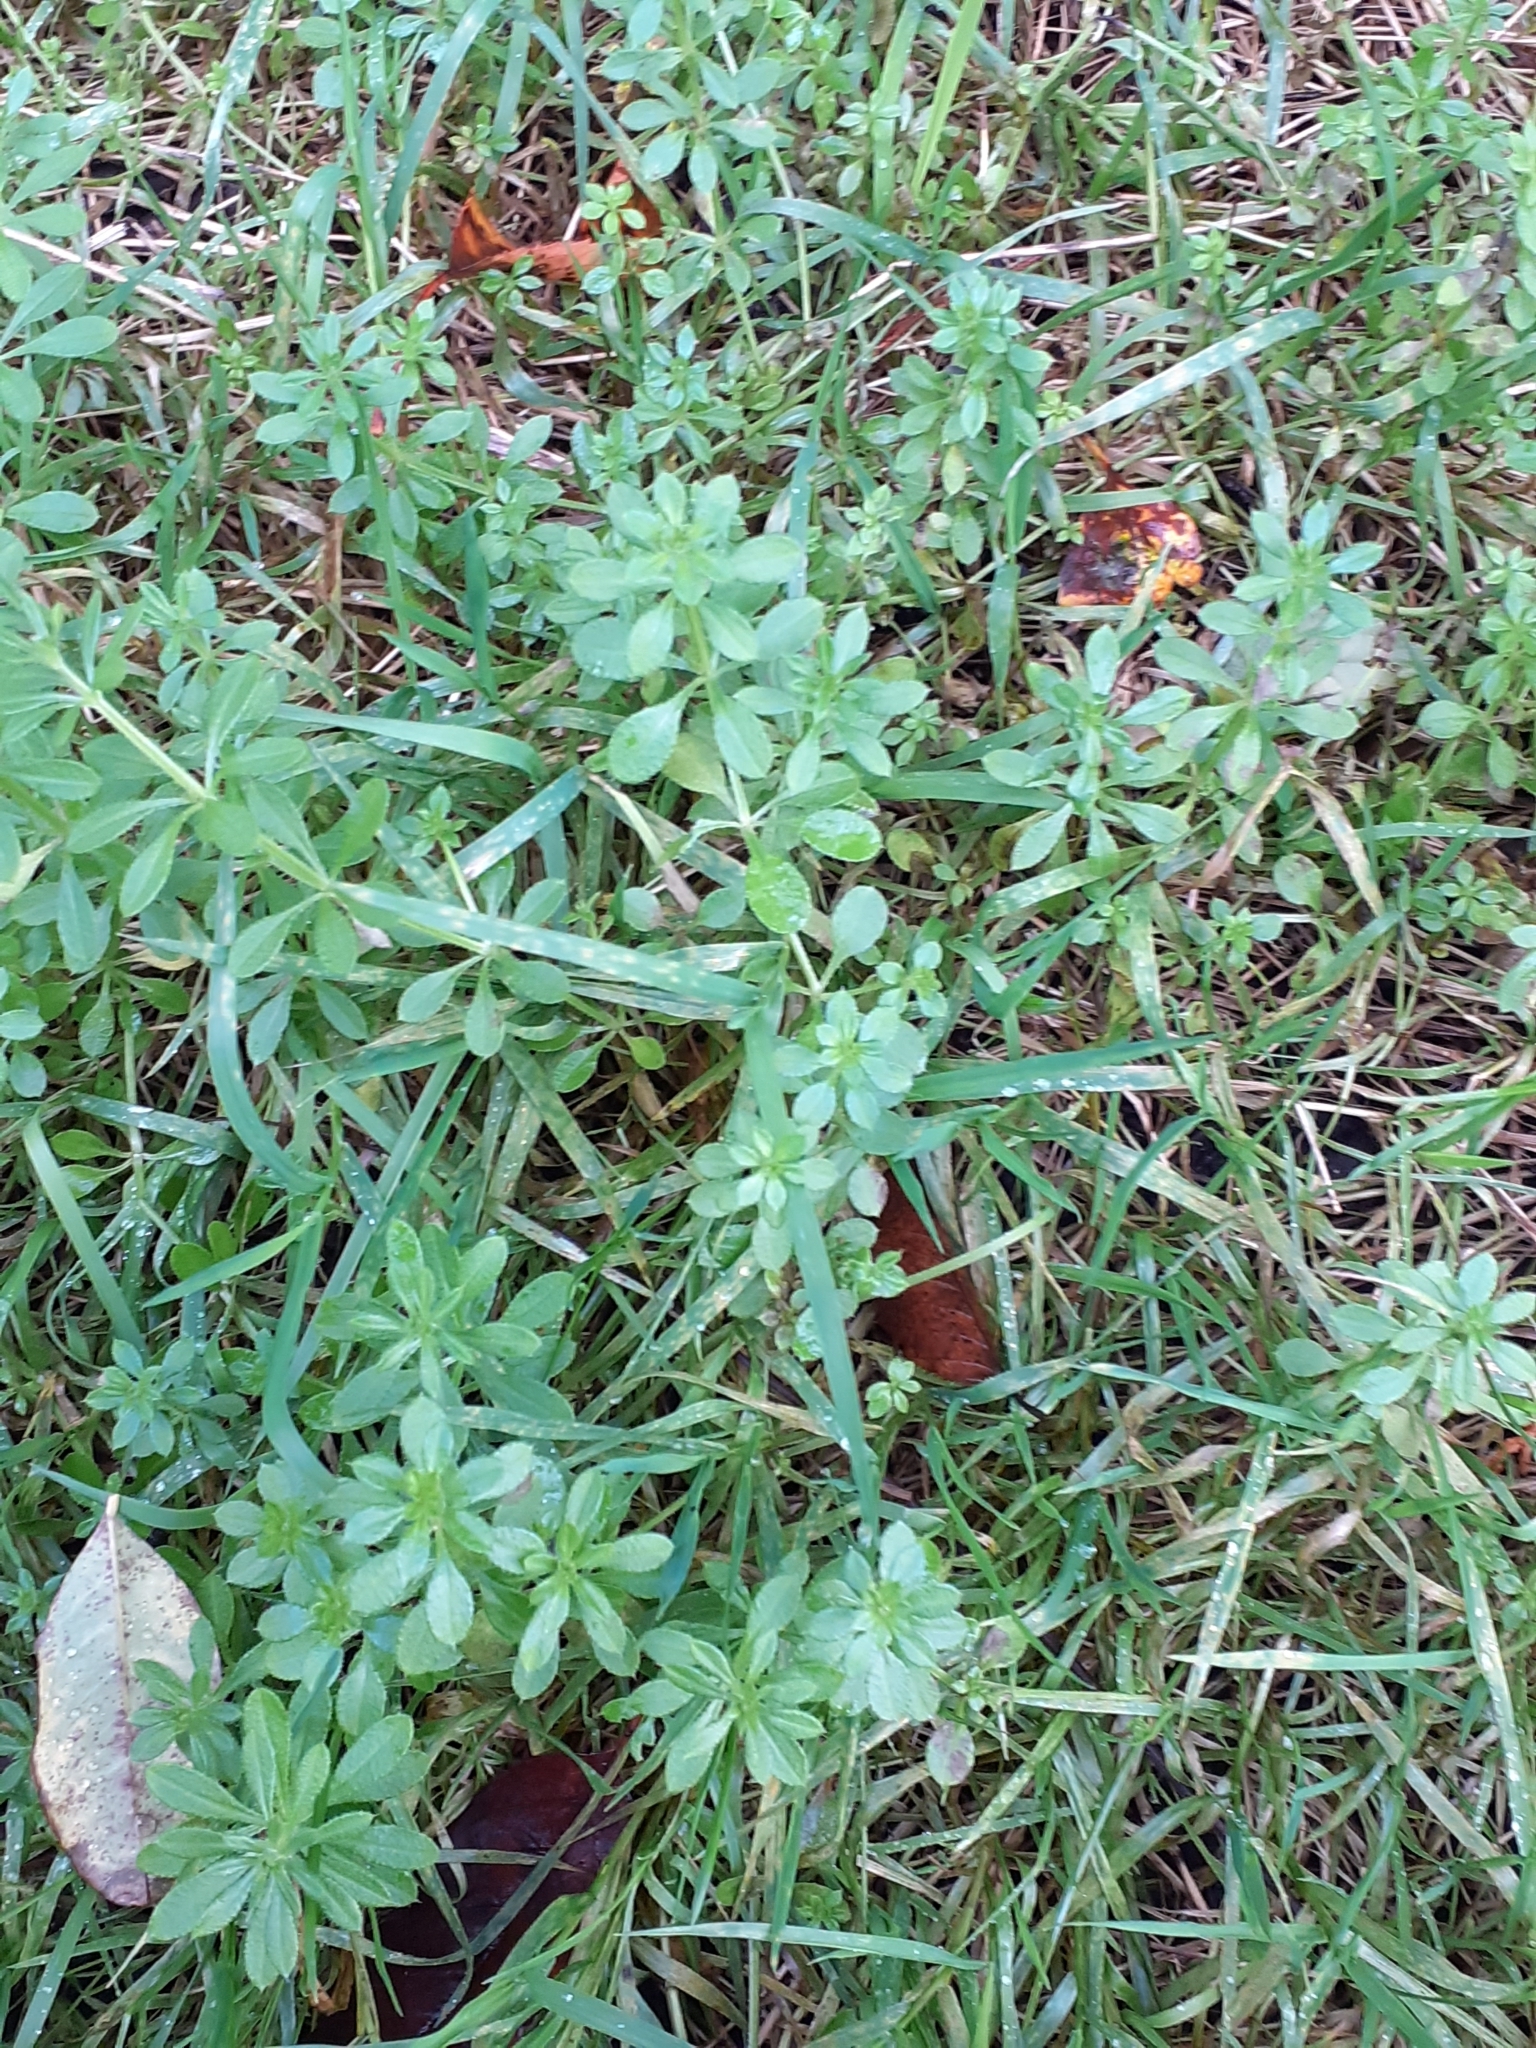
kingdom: Plantae
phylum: Tracheophyta
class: Magnoliopsida
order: Gentianales
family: Rubiaceae
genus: Galium
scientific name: Galium aparine
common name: Cleavers
